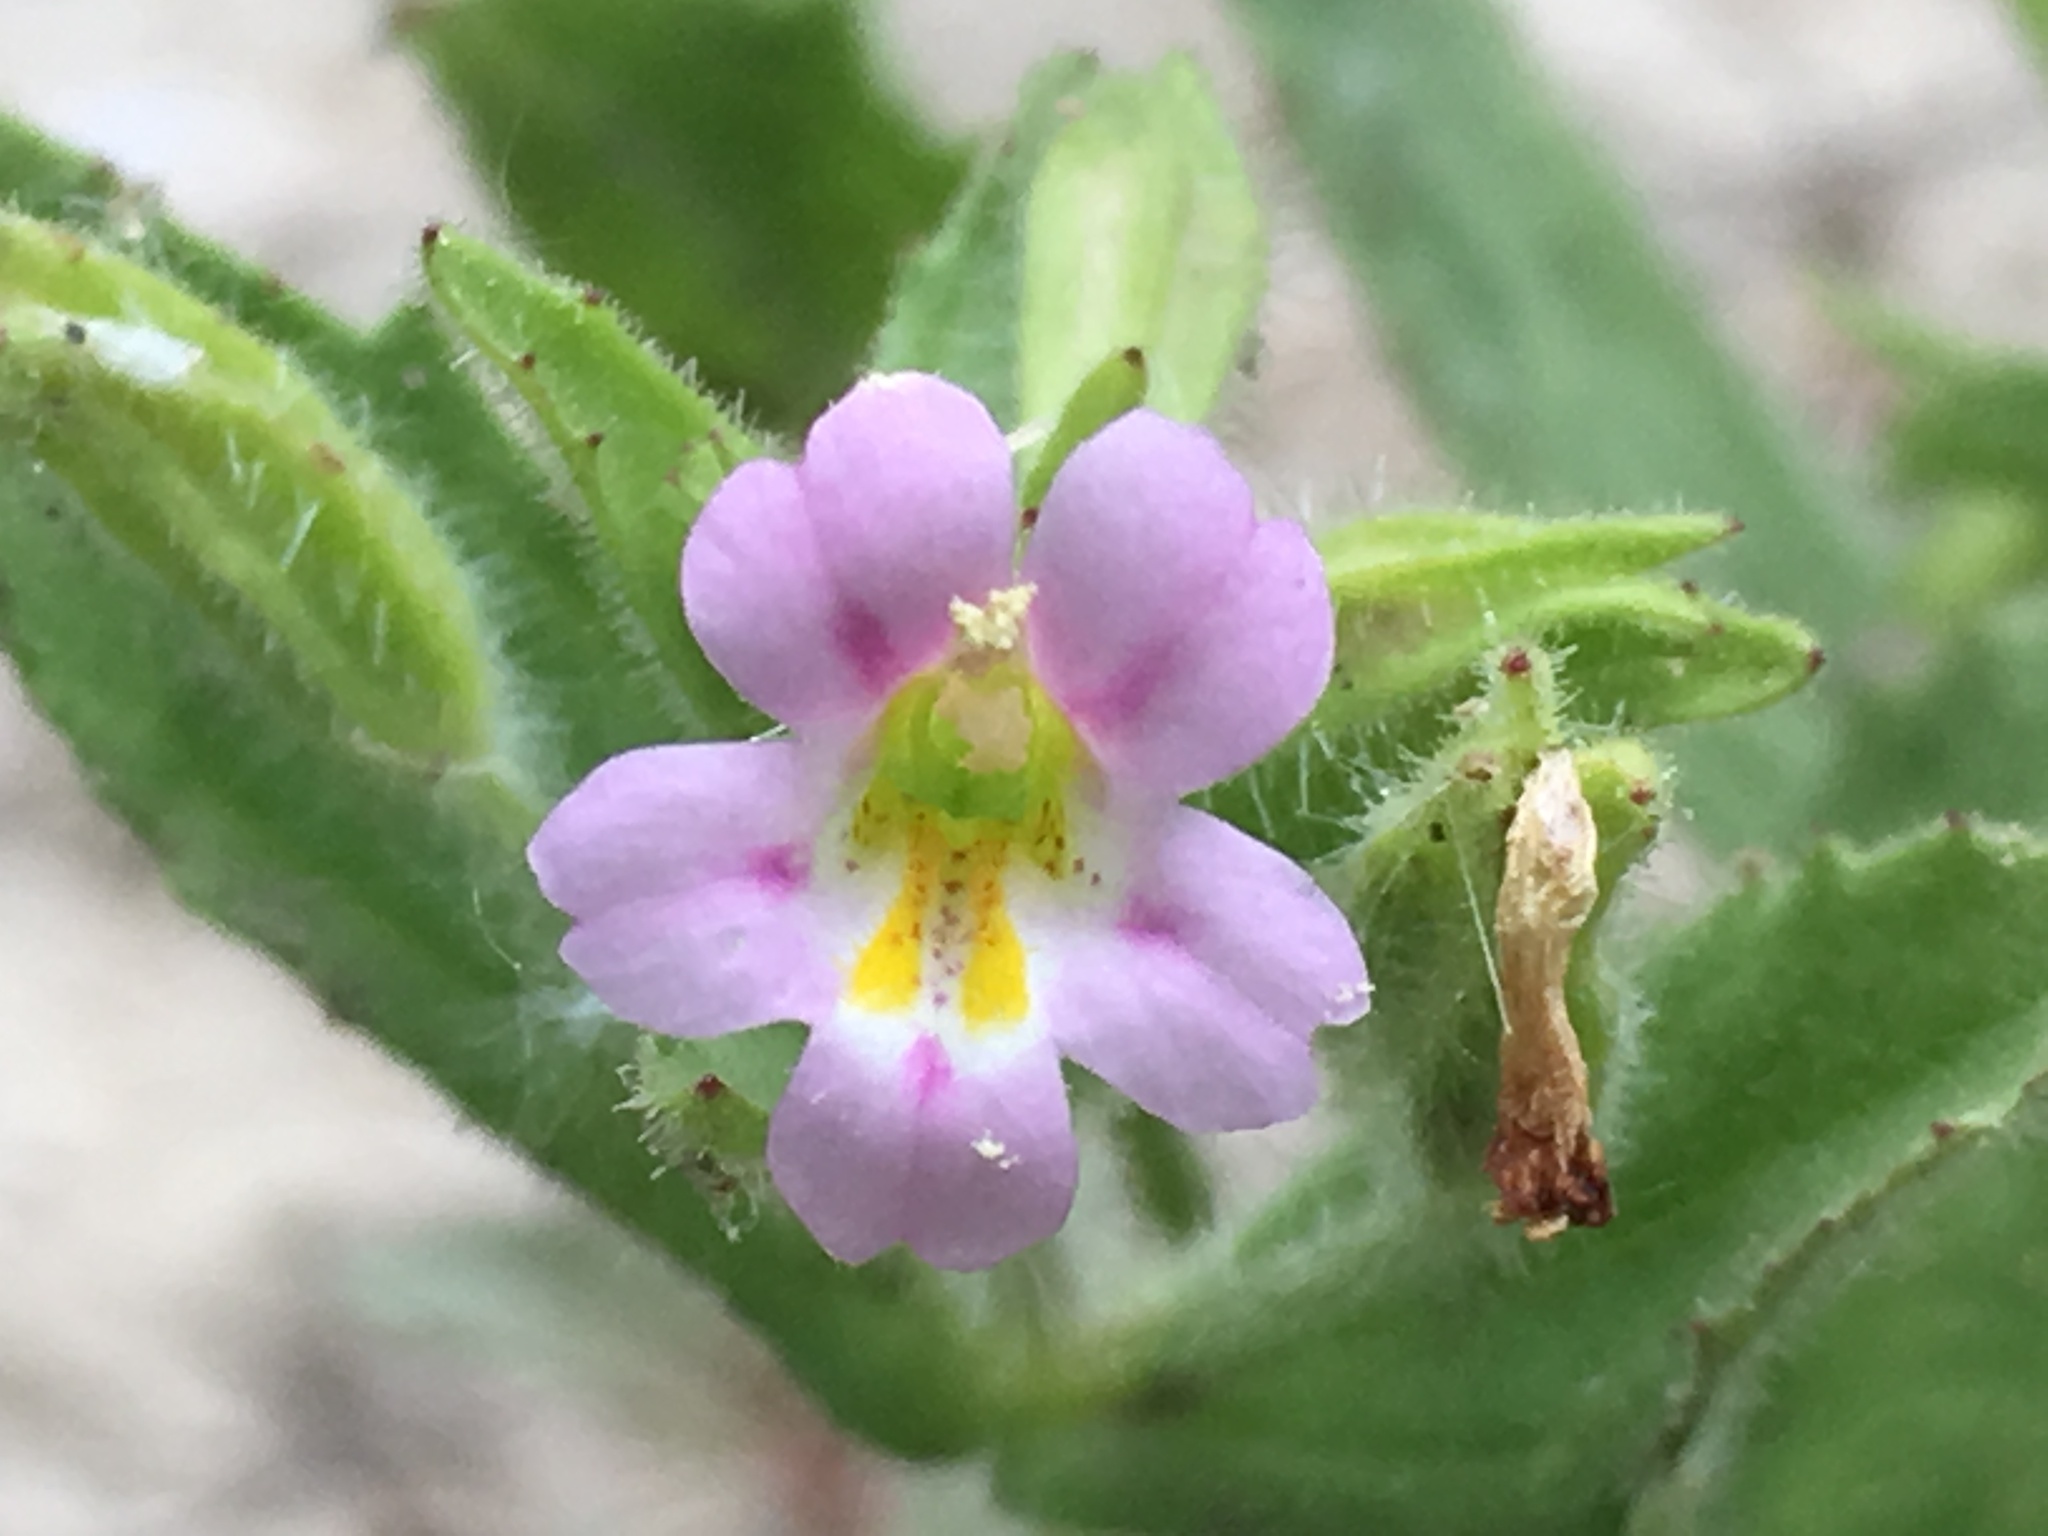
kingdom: Plantae
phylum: Tracheophyta
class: Magnoliopsida
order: Lamiales
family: Phrymaceae
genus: Erythranthe
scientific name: Erythranthe parishii
